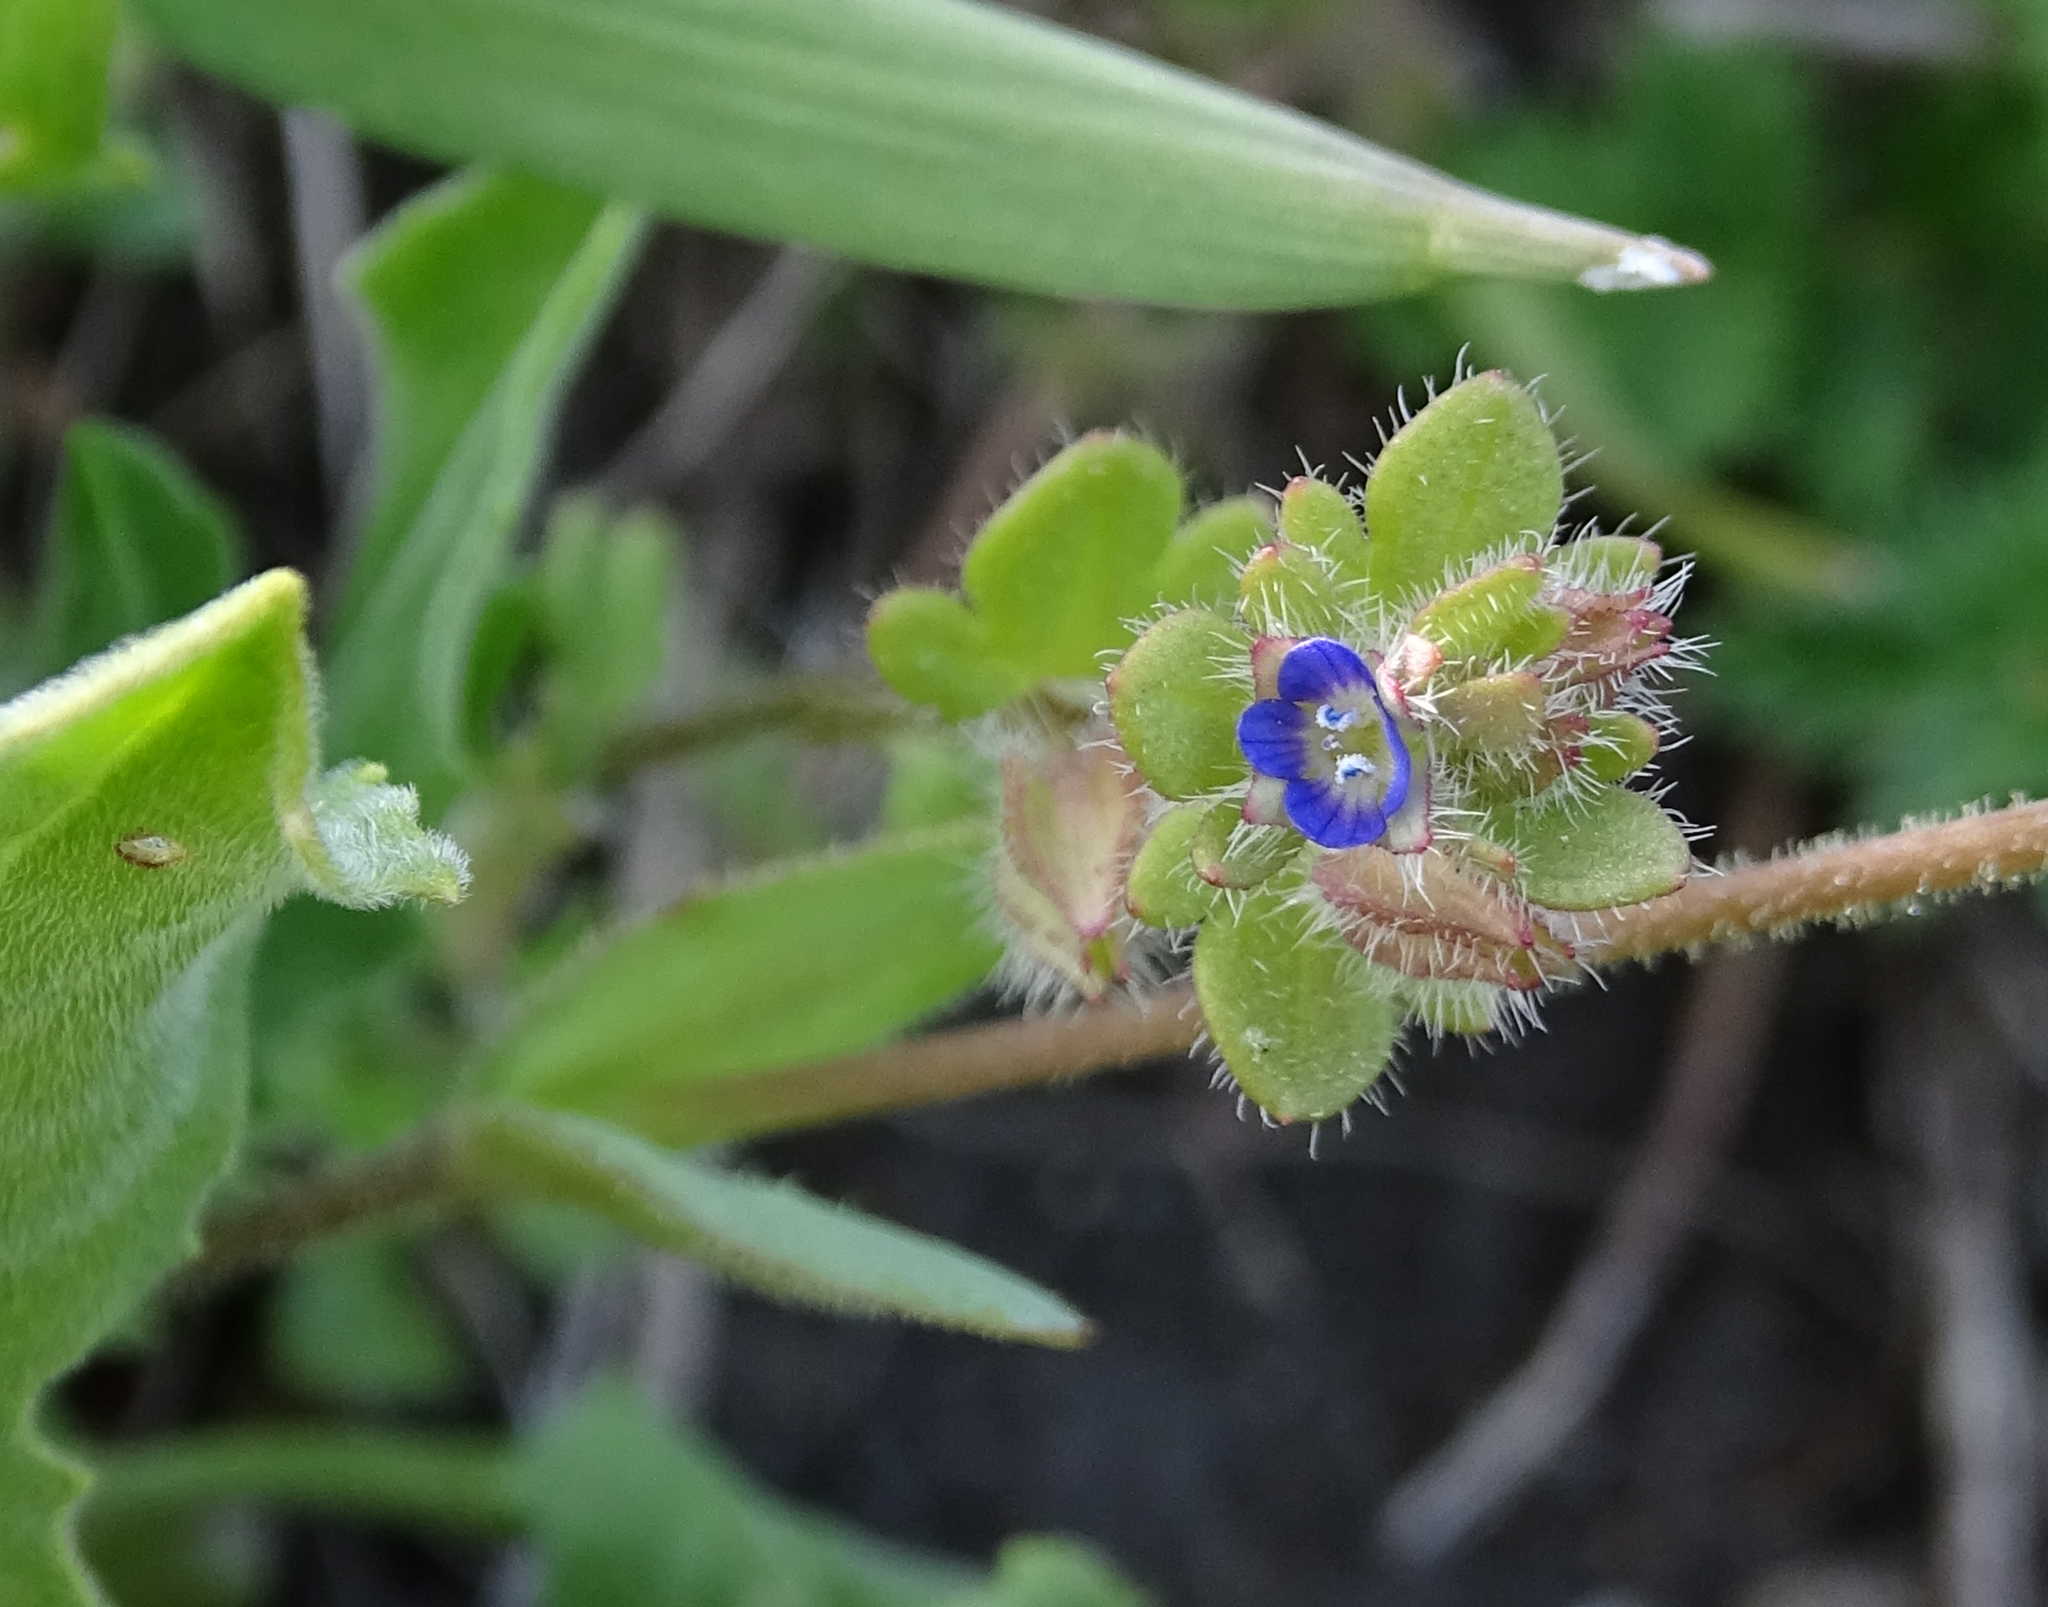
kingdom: Plantae
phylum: Tracheophyta
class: Magnoliopsida
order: Lamiales
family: Plantaginaceae
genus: Veronica
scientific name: Veronica hederifolia
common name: Ivy-leaved speedwell
